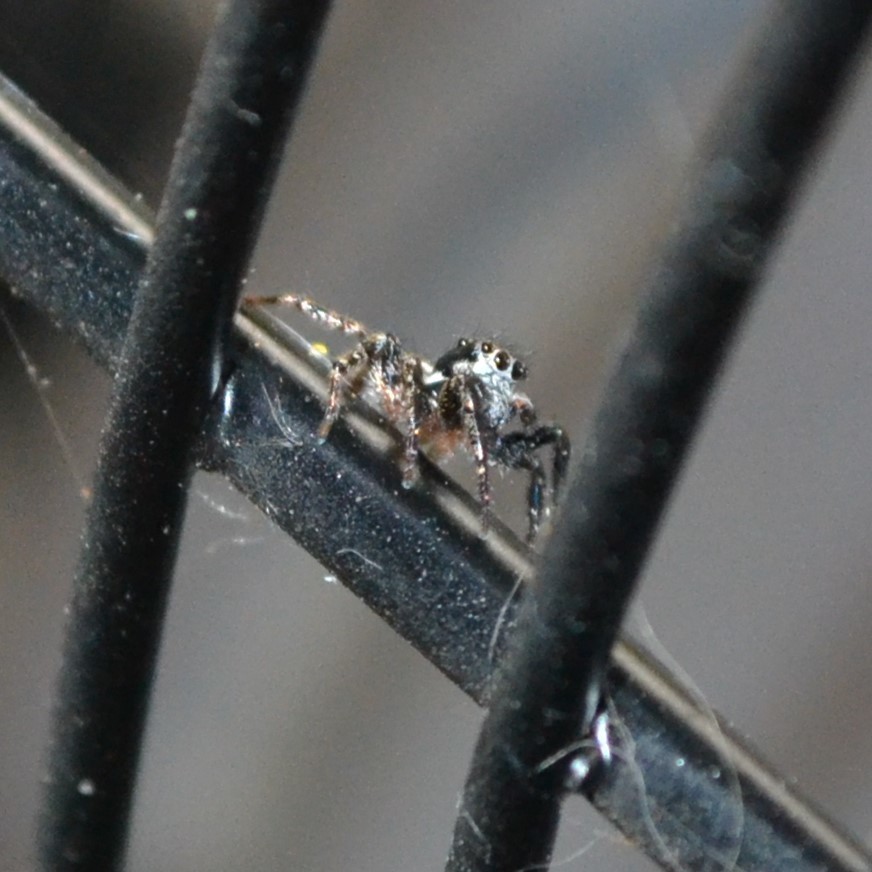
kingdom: Animalia
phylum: Arthropoda
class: Arachnida
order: Araneae
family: Salticidae
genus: Anasaitis
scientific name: Anasaitis canosa
